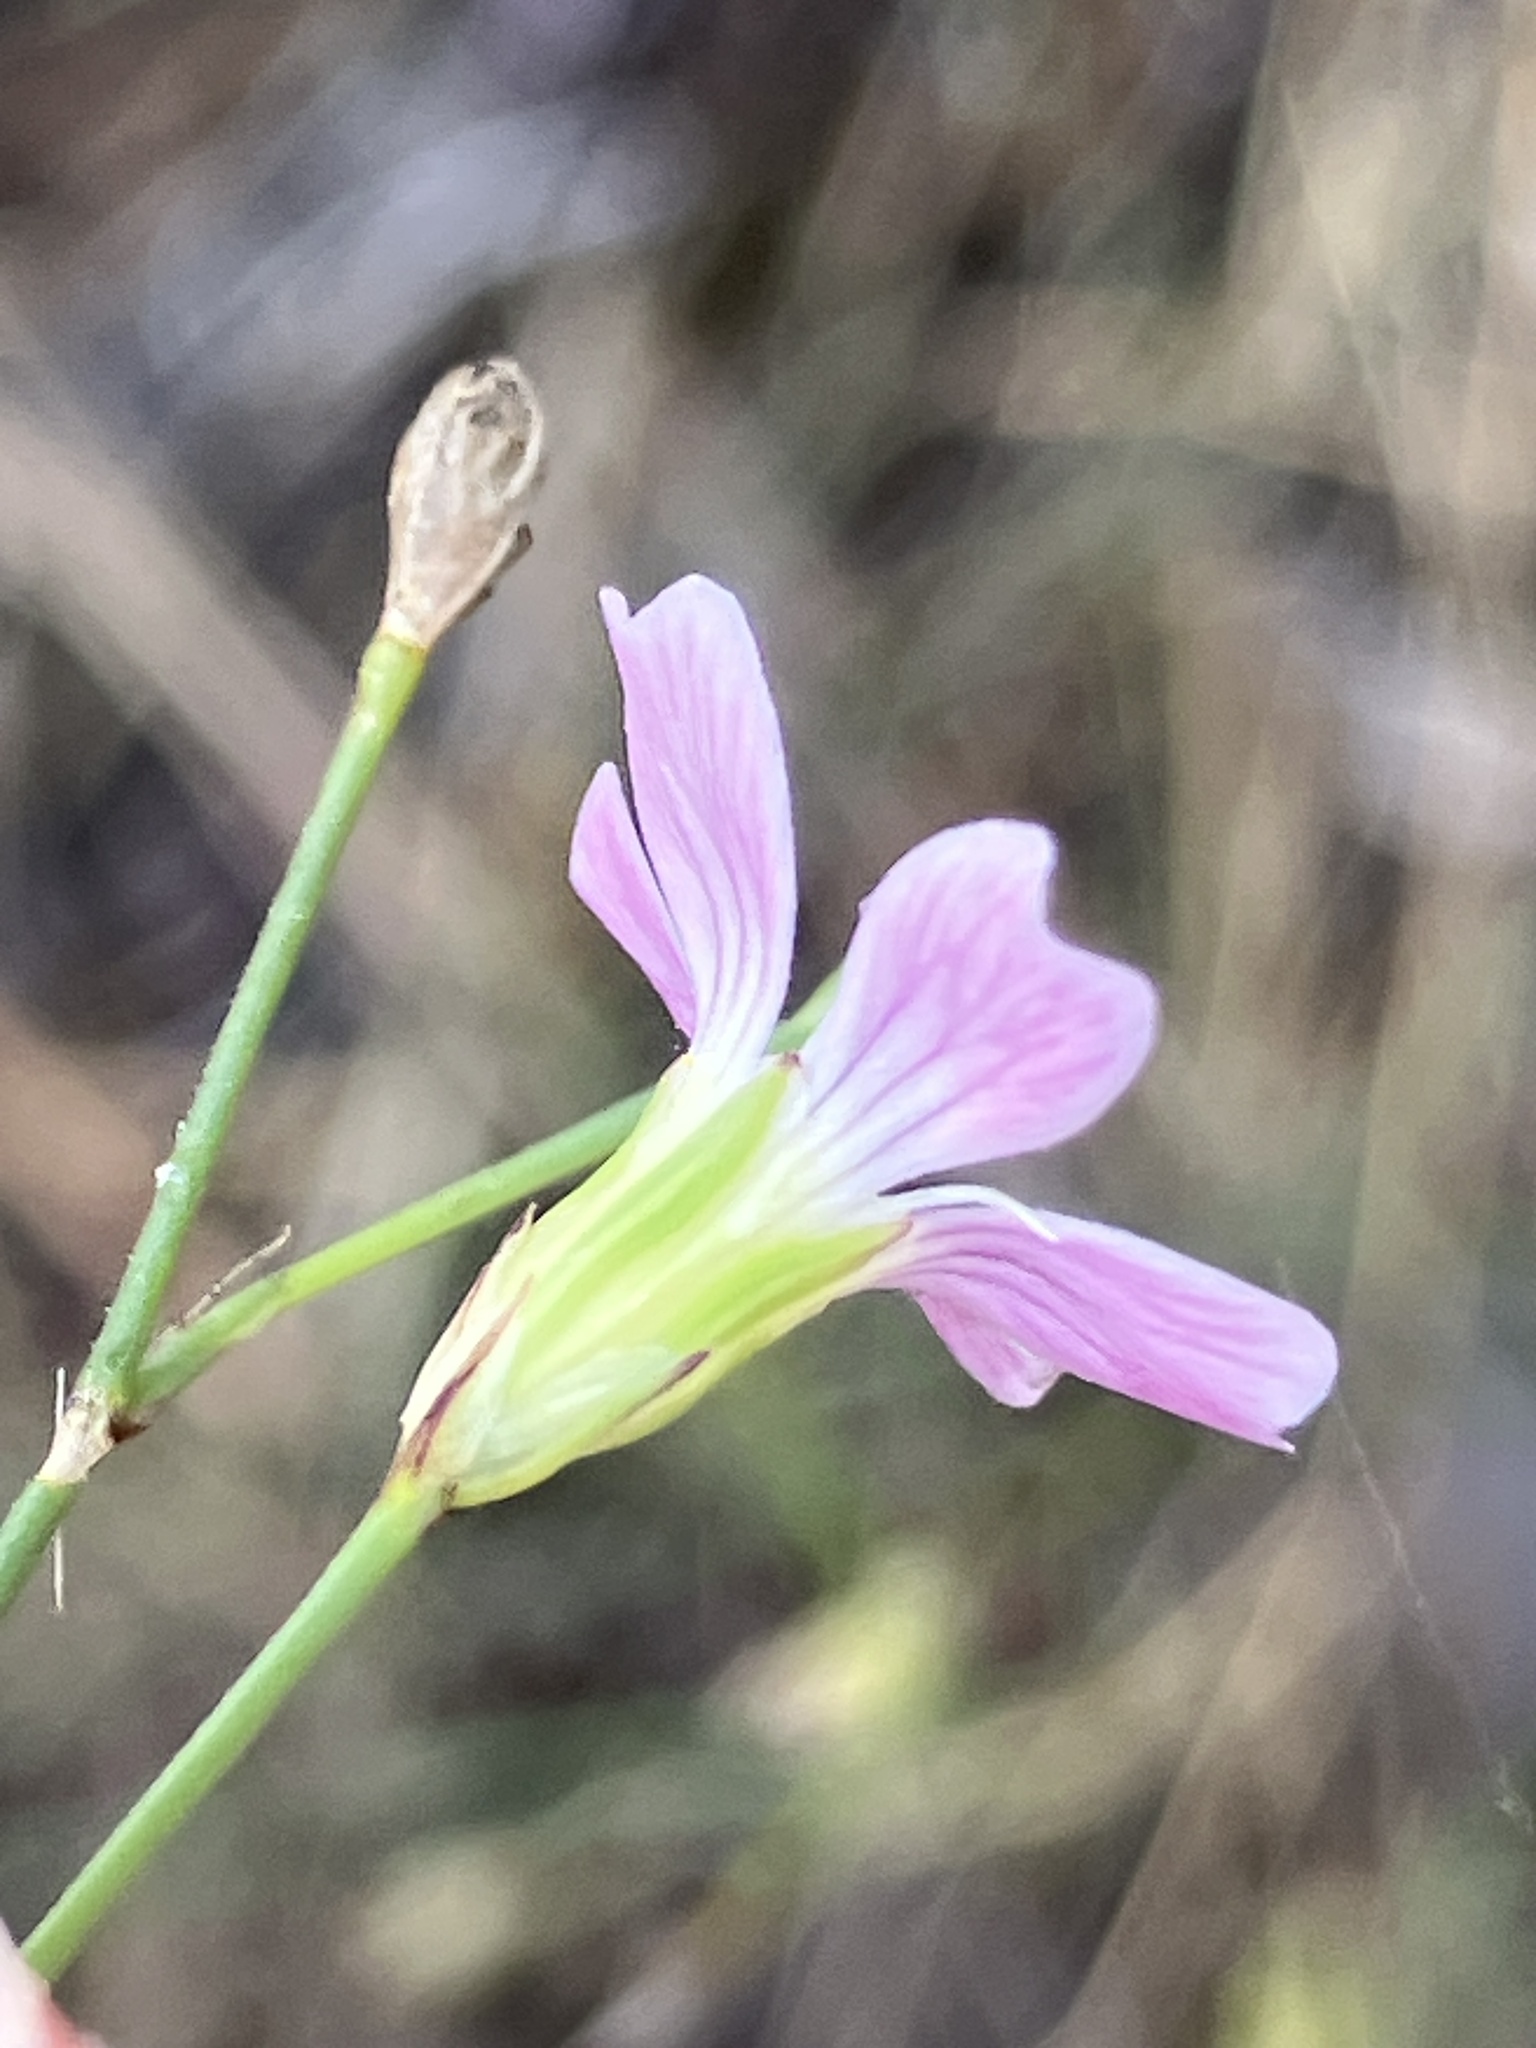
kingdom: Plantae
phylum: Tracheophyta
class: Magnoliopsida
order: Caryophyllales
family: Caryophyllaceae
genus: Petrorhagia
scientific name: Petrorhagia saxifraga
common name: Tunicflower
